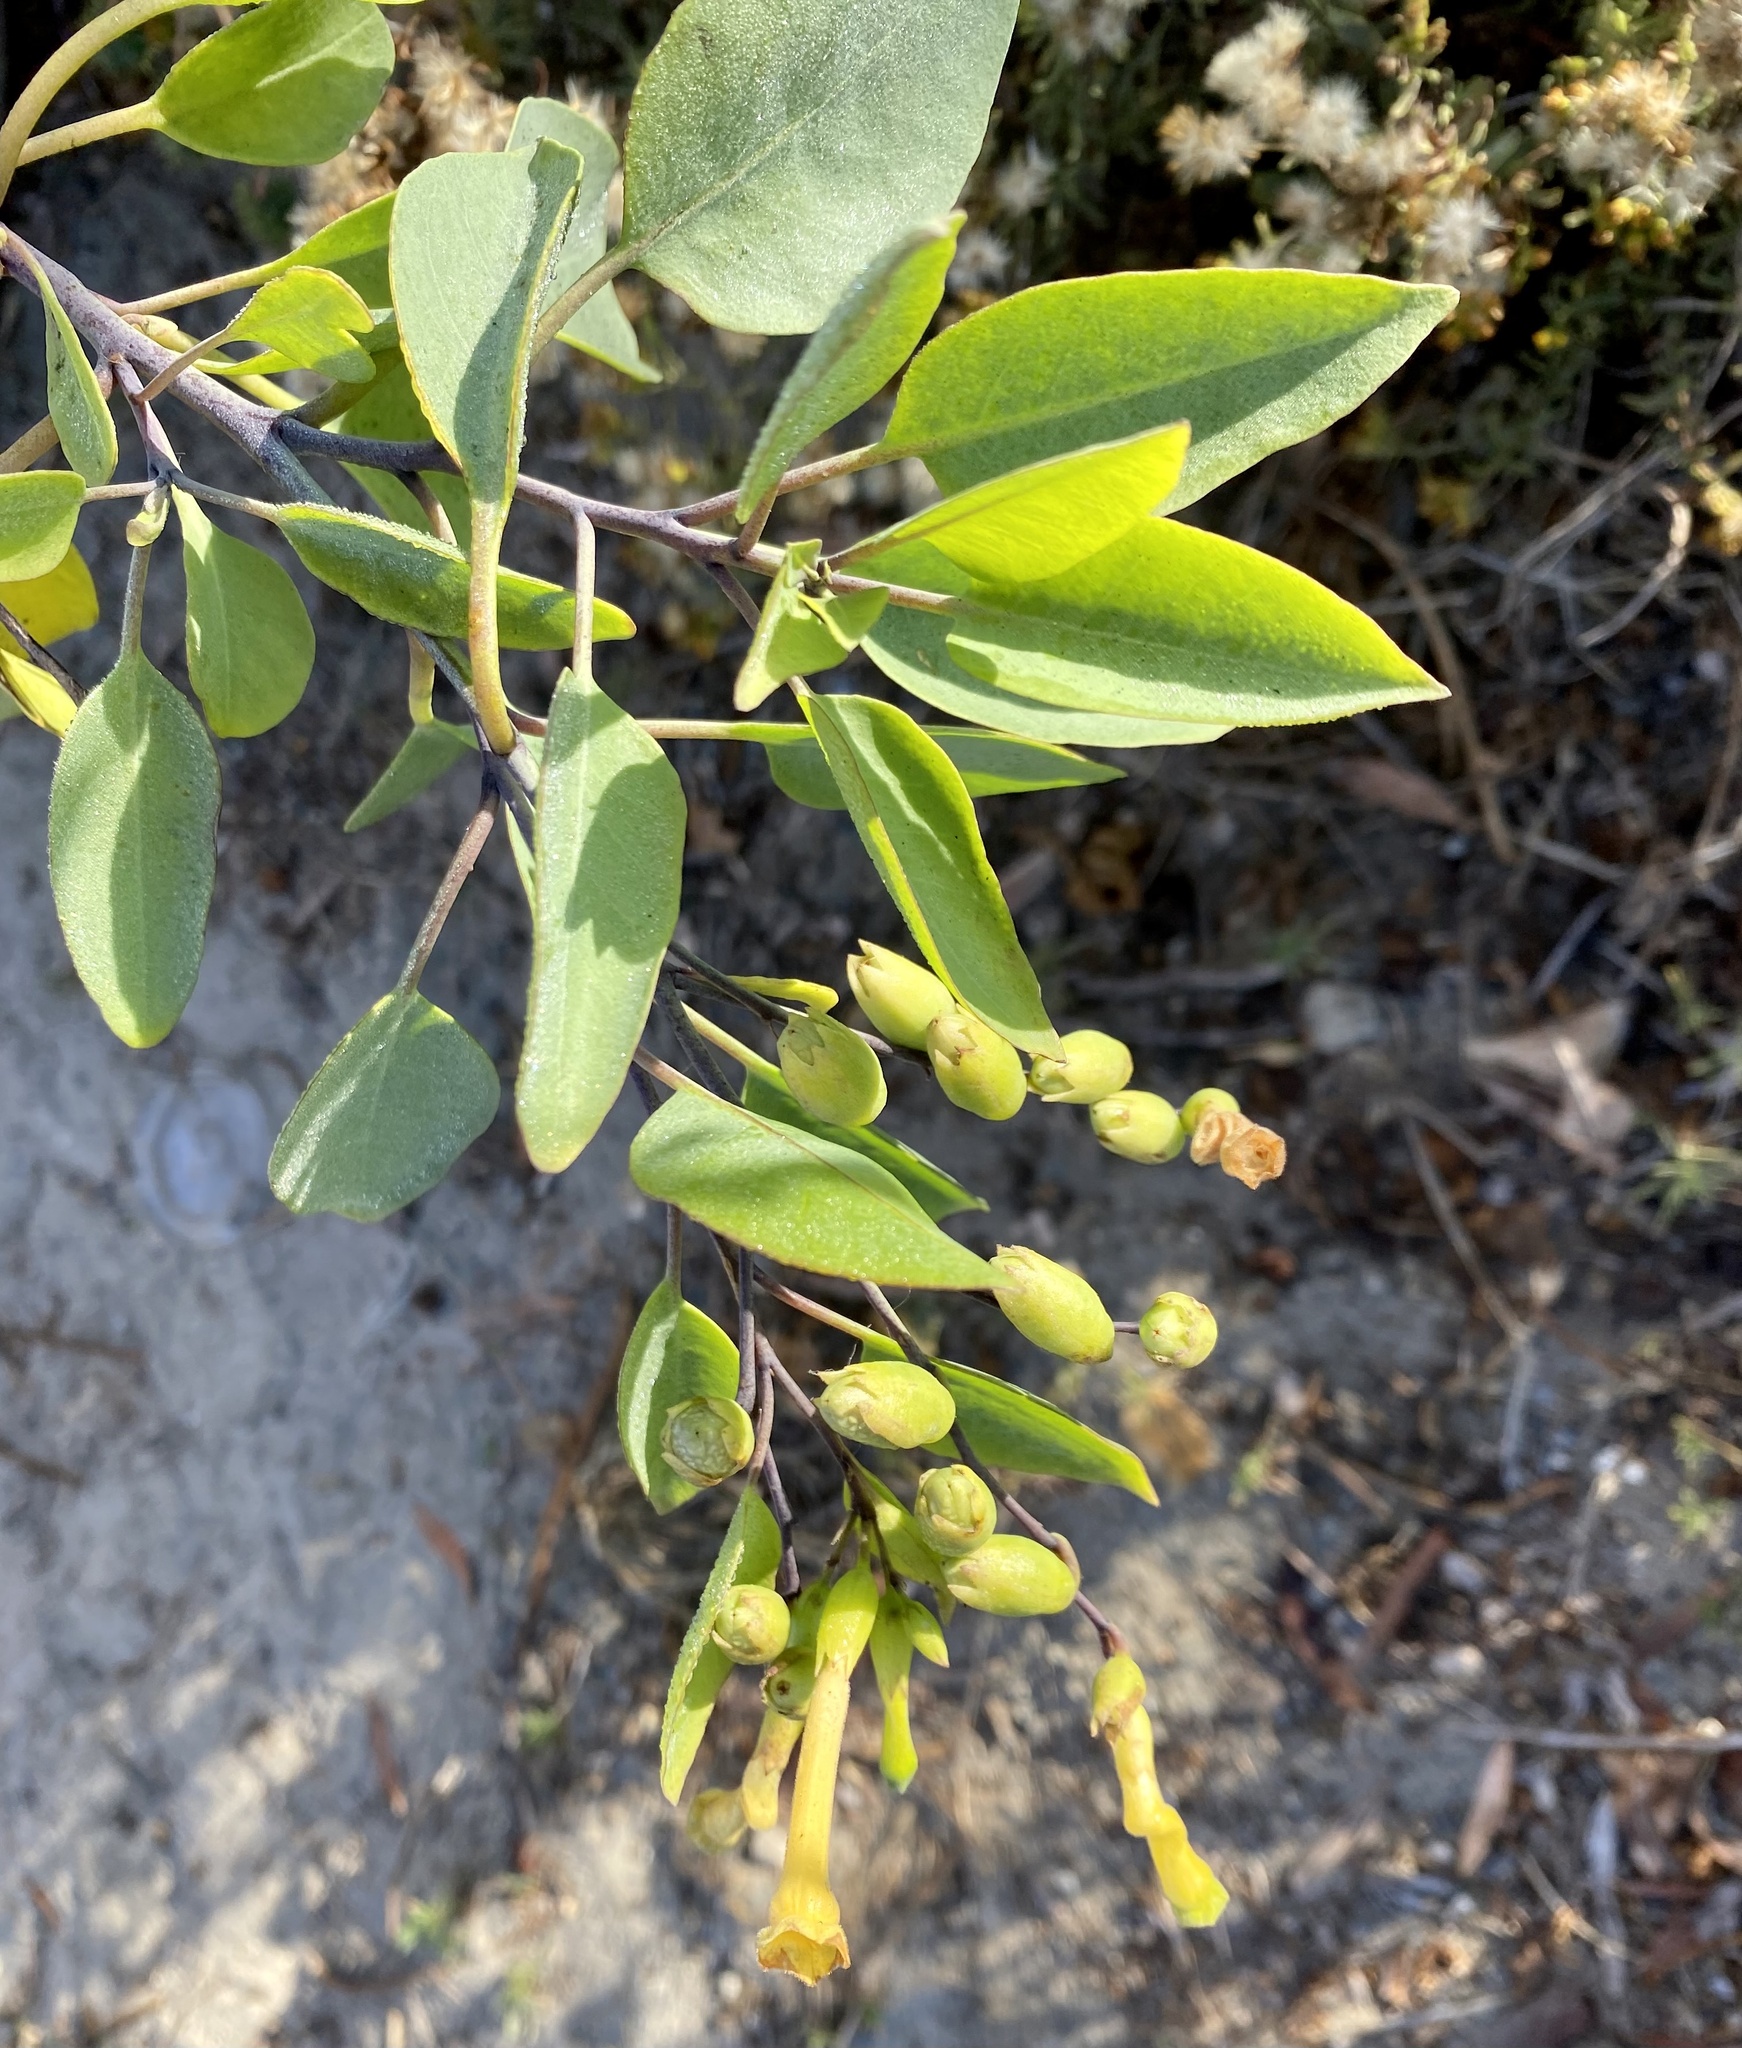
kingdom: Plantae
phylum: Tracheophyta
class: Magnoliopsida
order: Solanales
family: Solanaceae
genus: Nicotiana
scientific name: Nicotiana glauca
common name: Tree tobacco
